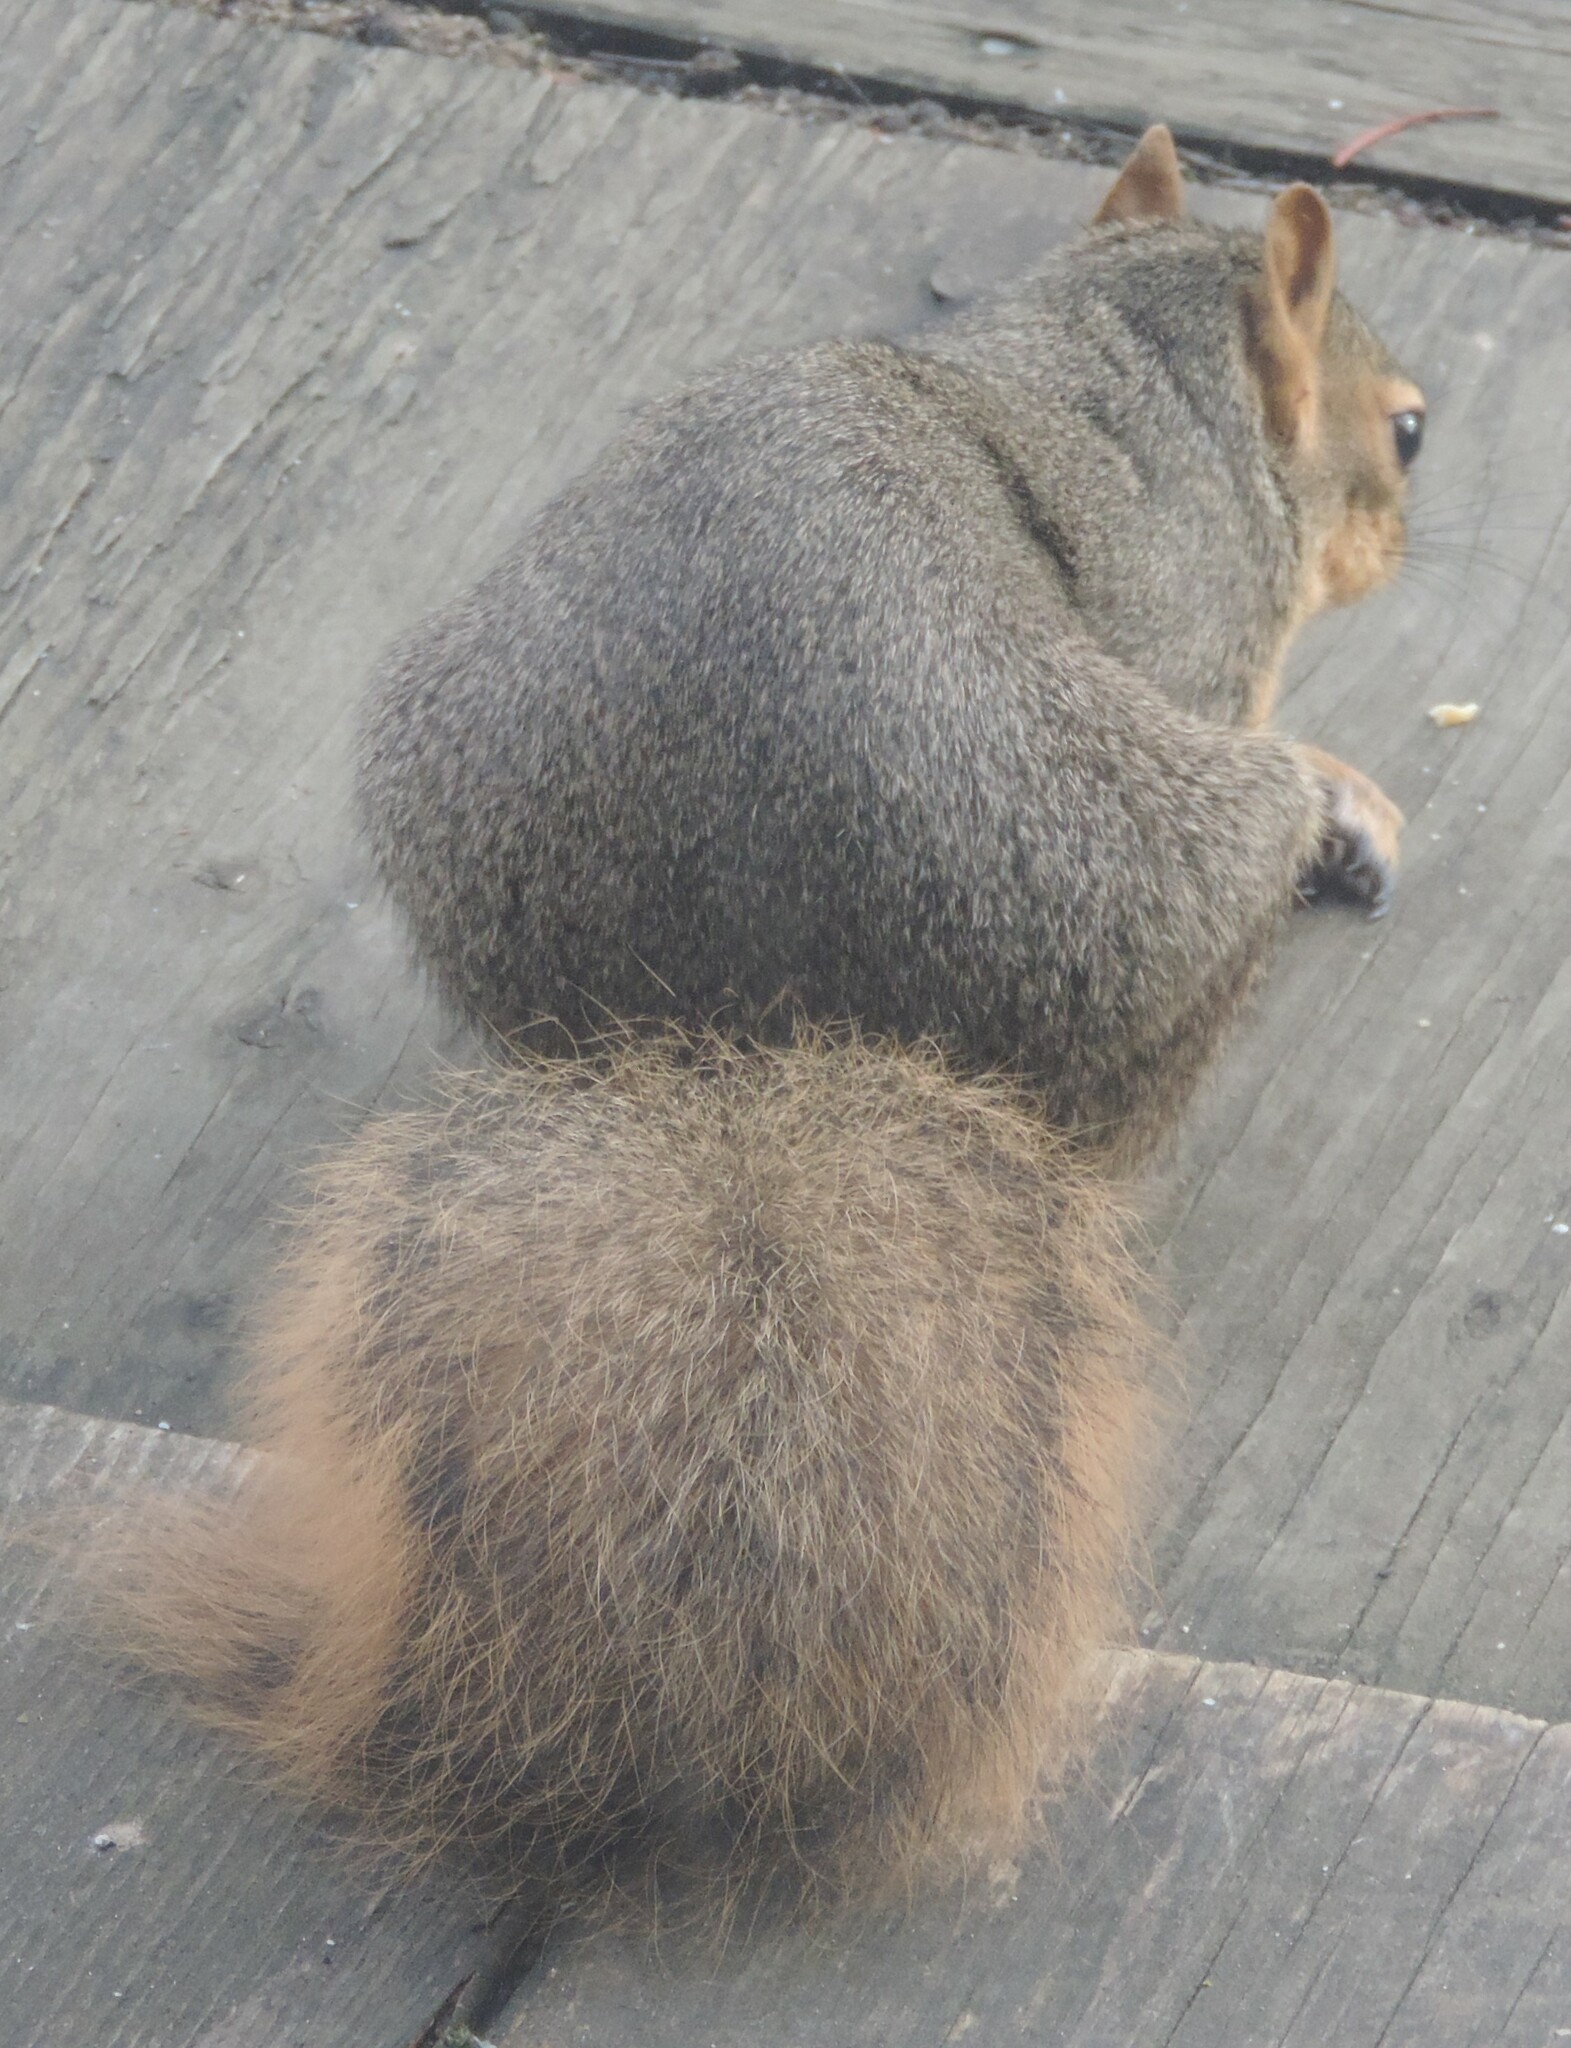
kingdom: Animalia
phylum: Chordata
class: Mammalia
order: Rodentia
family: Sciuridae
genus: Sciurus
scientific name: Sciurus niger
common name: Fox squirrel
